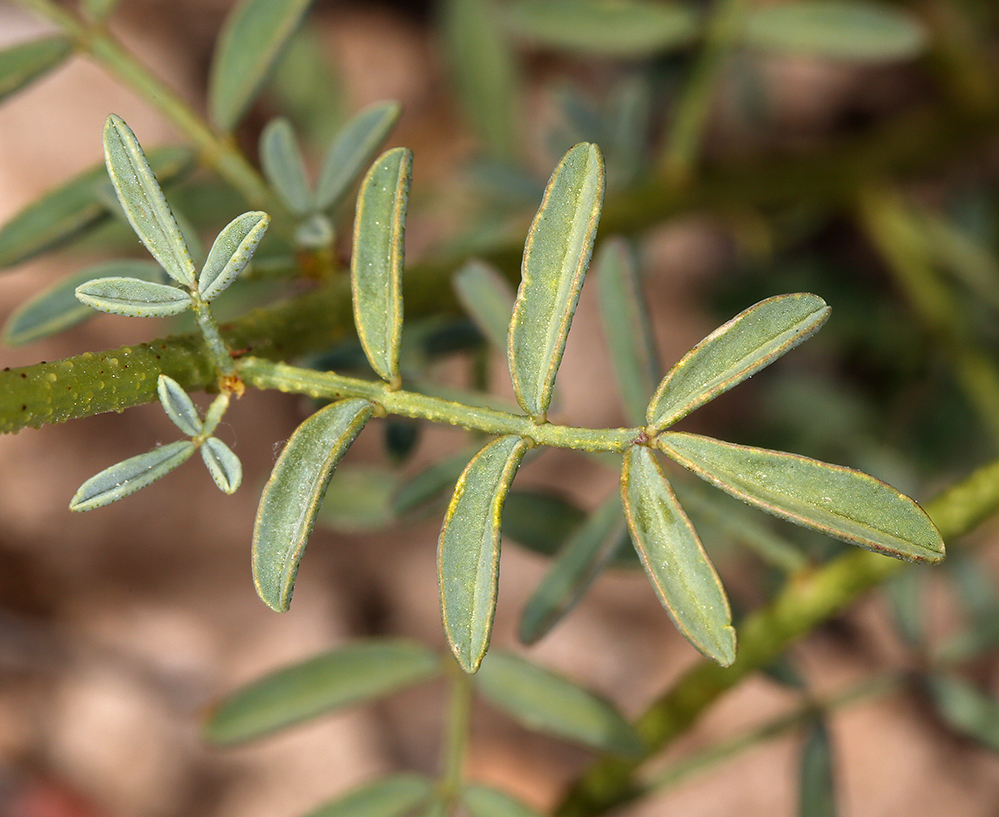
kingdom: Plantae
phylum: Tracheophyta
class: Magnoliopsida
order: Fabales
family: Fabaceae
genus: Dalea
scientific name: Dalea searlsiae
